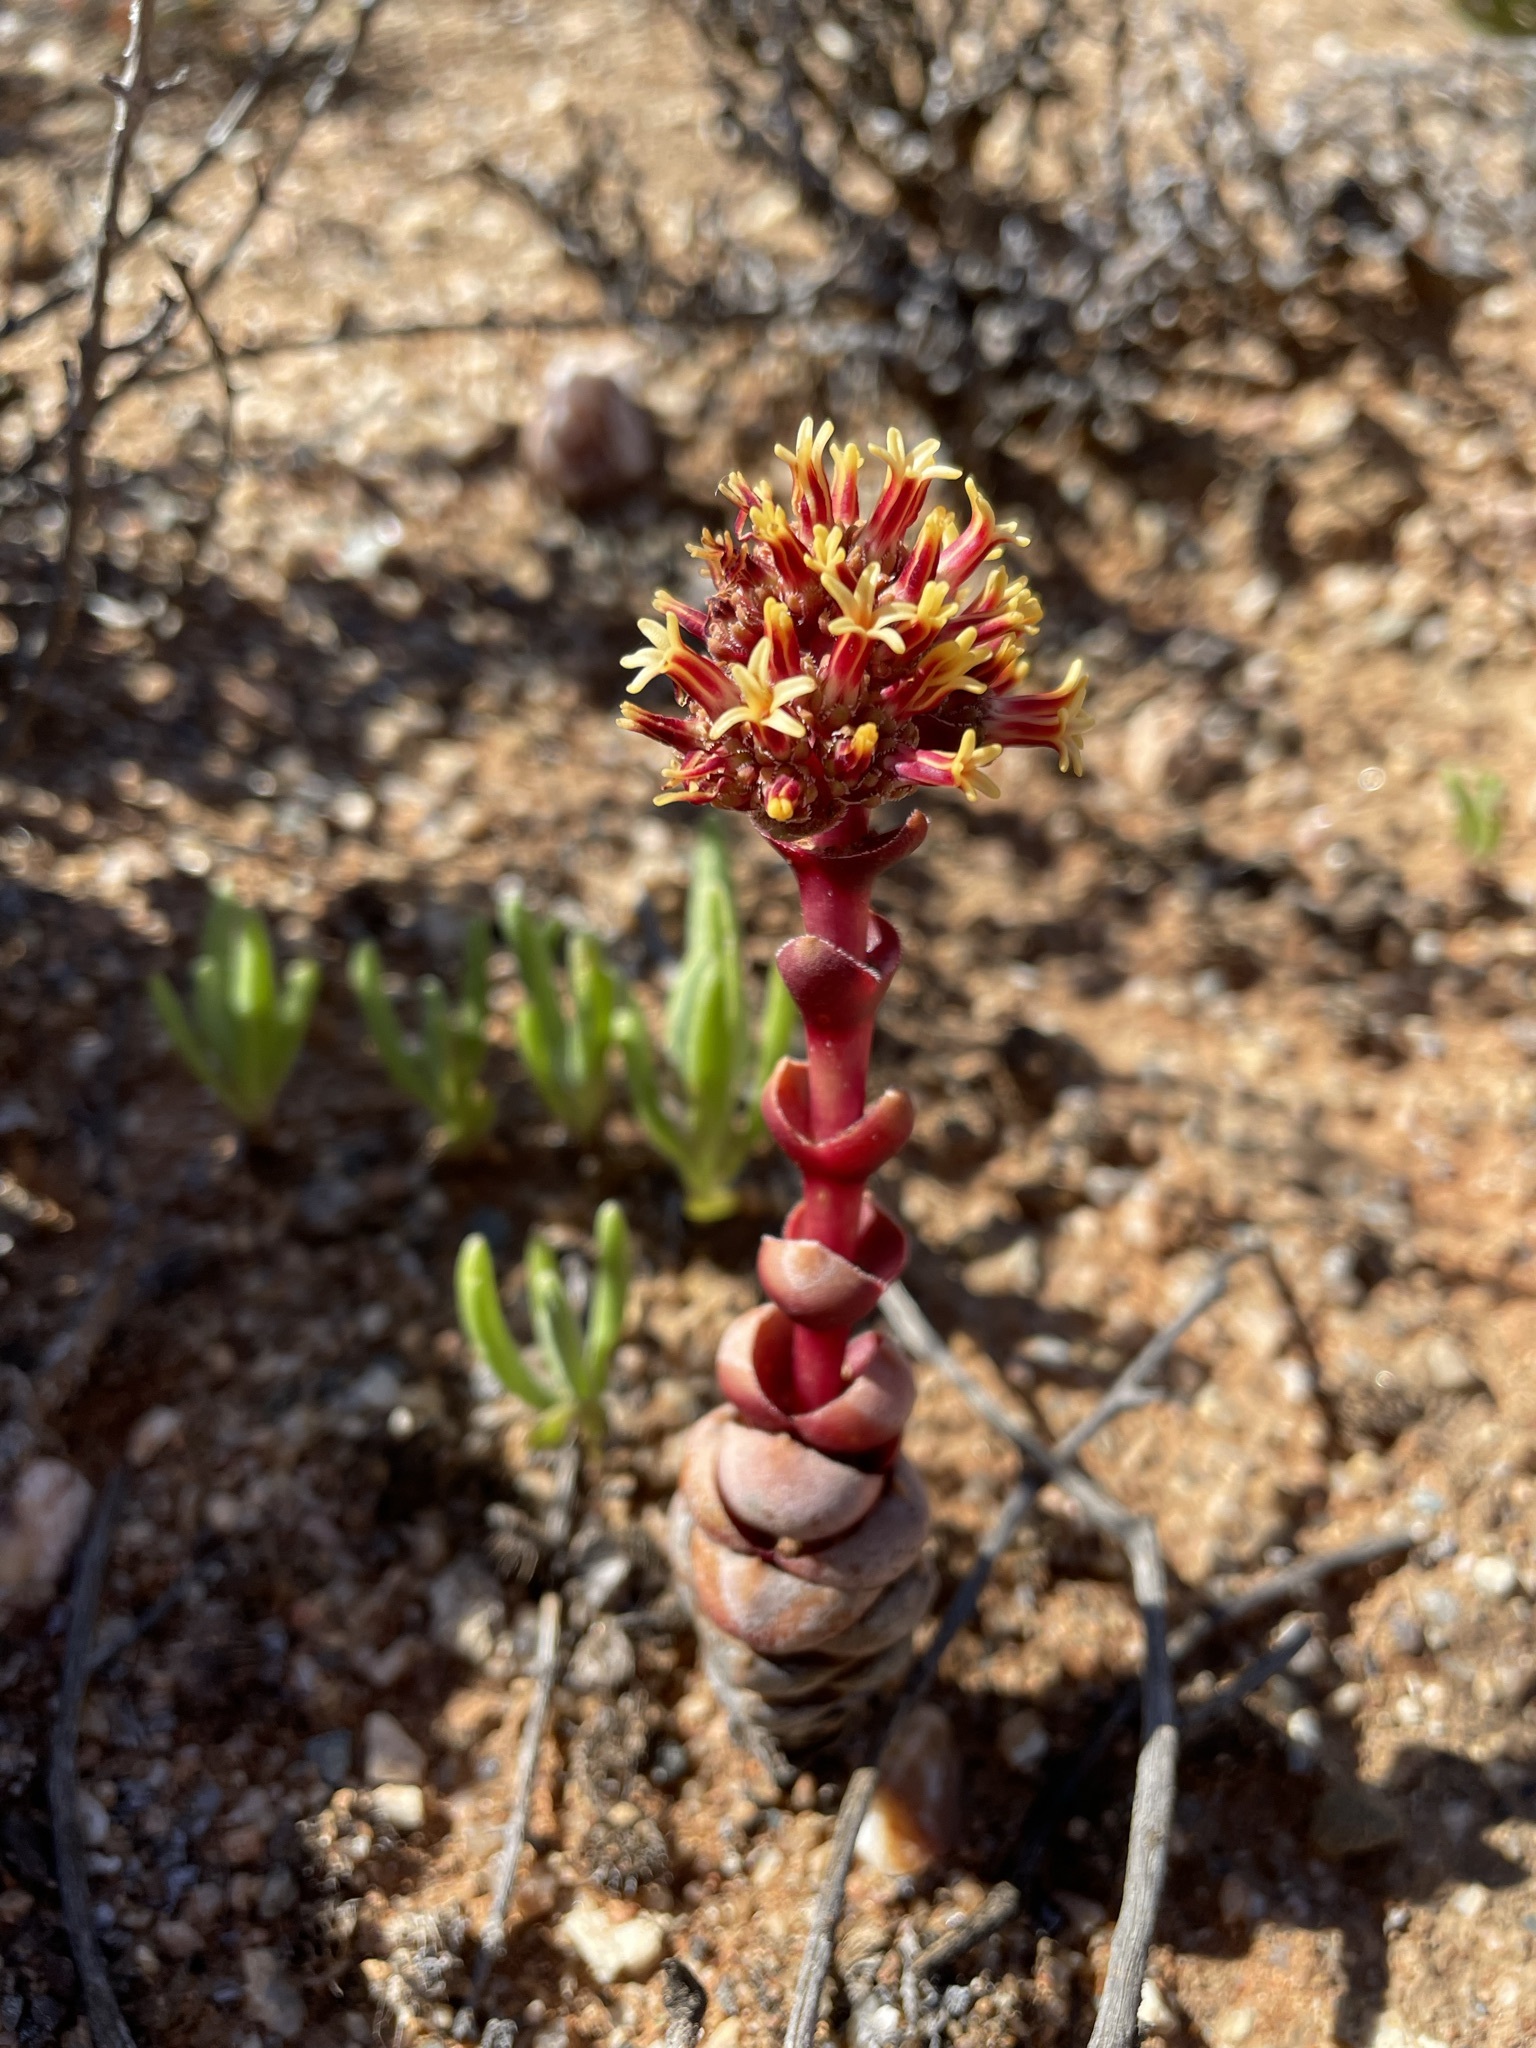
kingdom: Plantae
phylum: Tracheophyta
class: Magnoliopsida
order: Saxifragales
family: Crassulaceae
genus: Crassula
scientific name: Crassula columnaris
